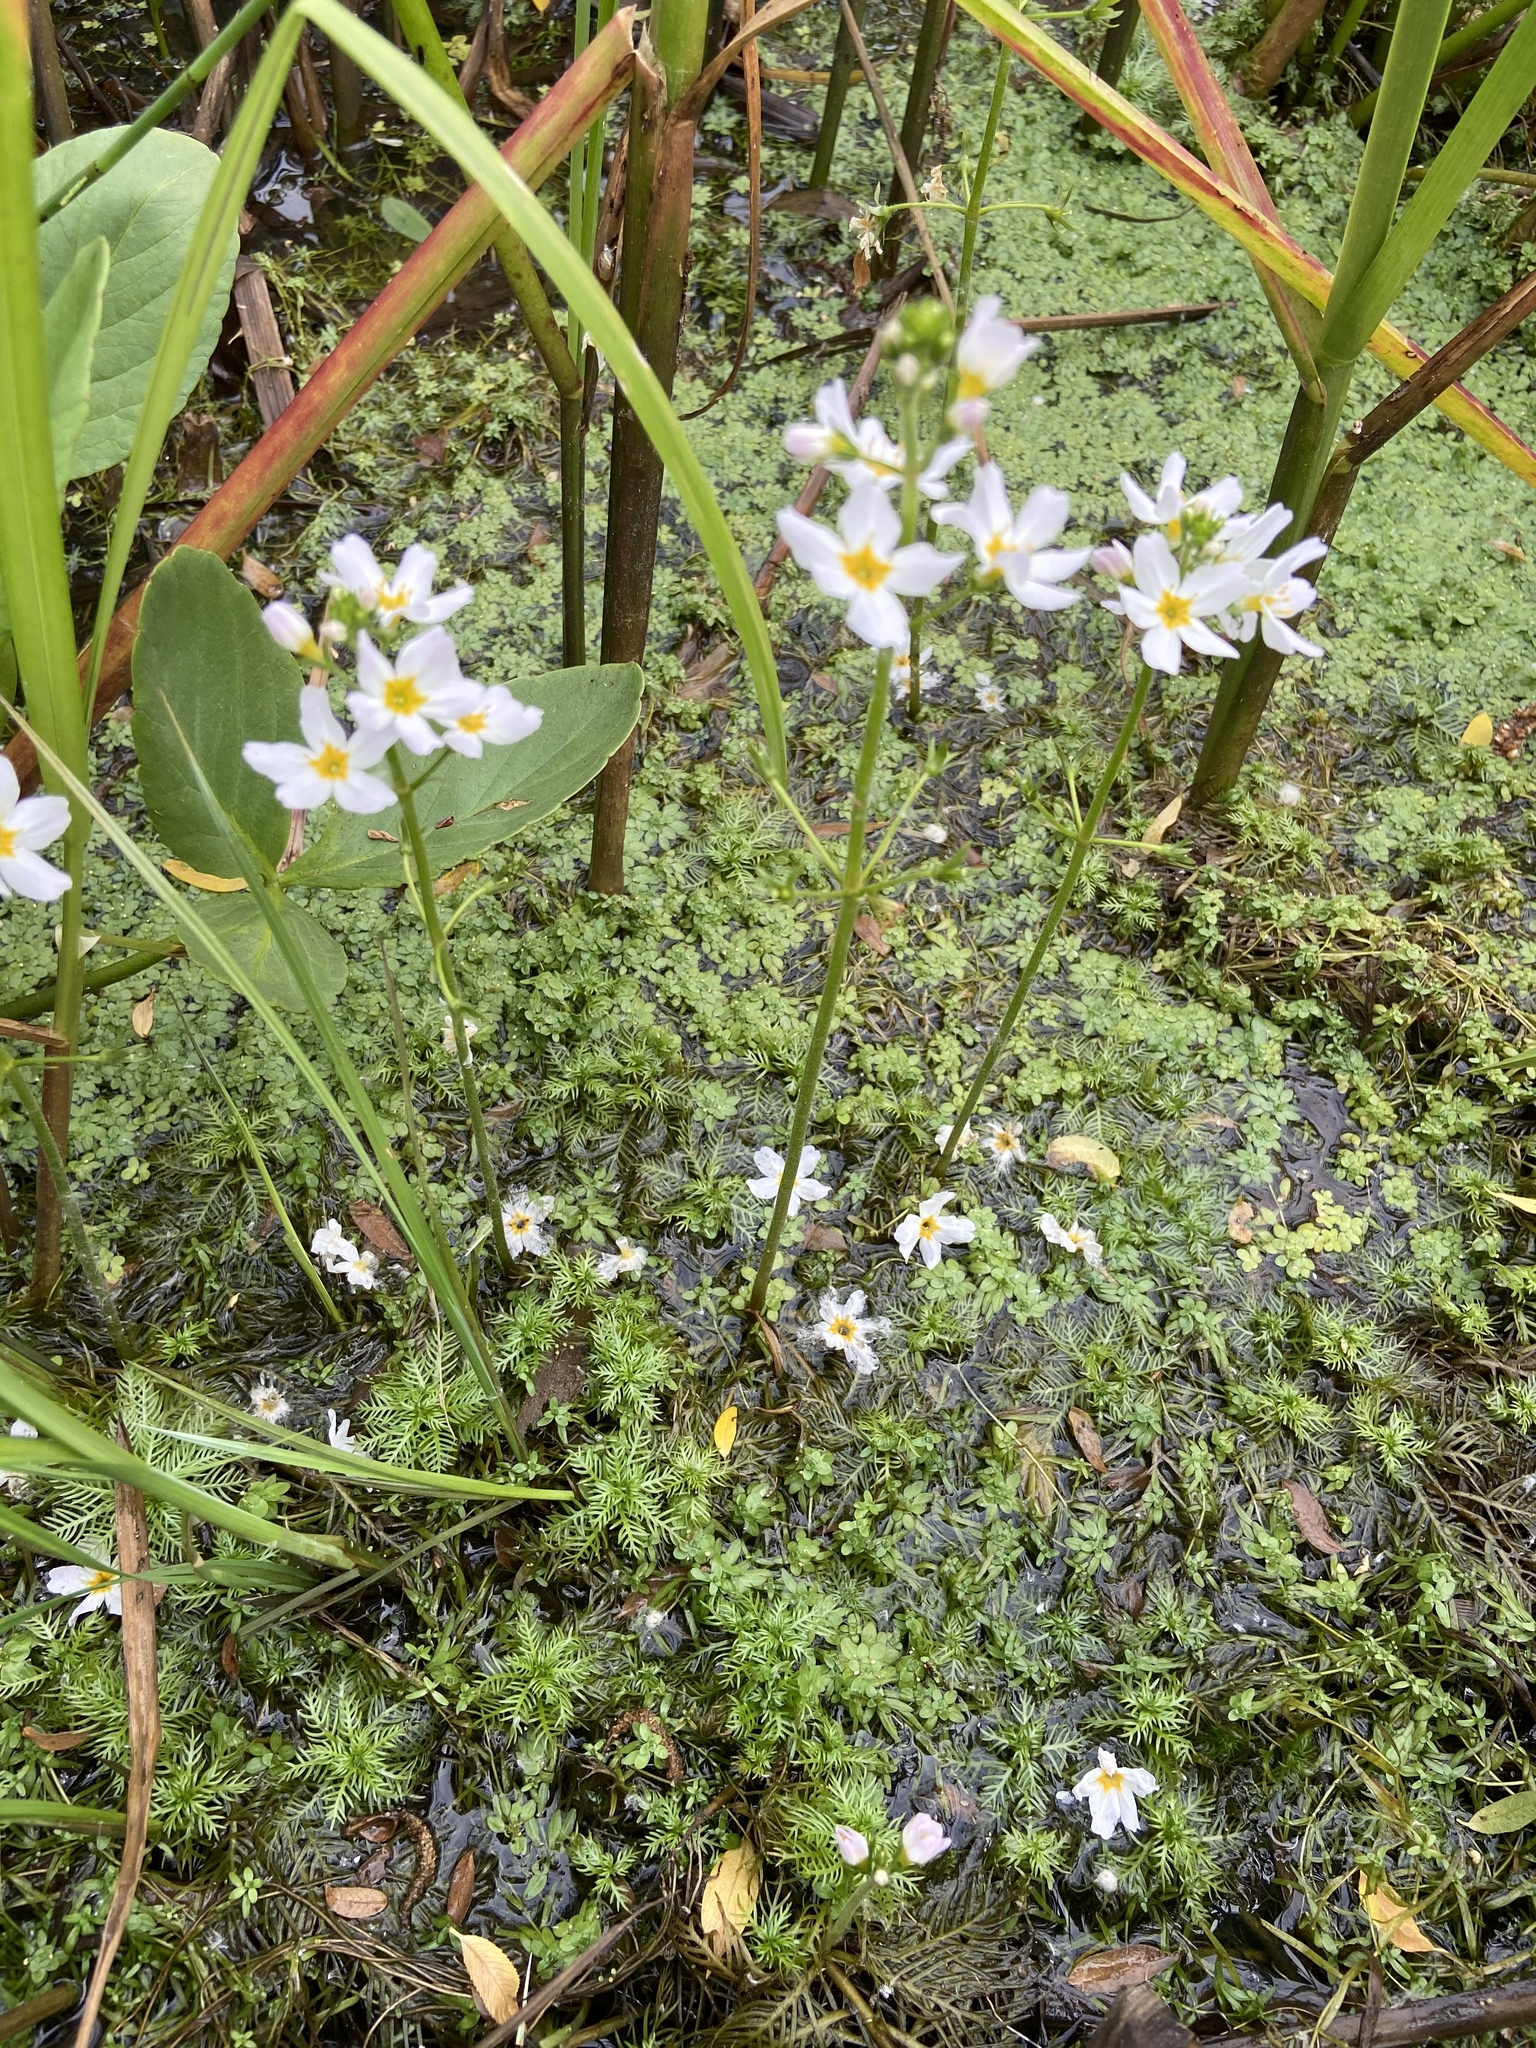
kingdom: Plantae
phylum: Tracheophyta
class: Magnoliopsida
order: Ericales
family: Primulaceae
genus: Hottonia
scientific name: Hottonia palustris
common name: Water-violet
